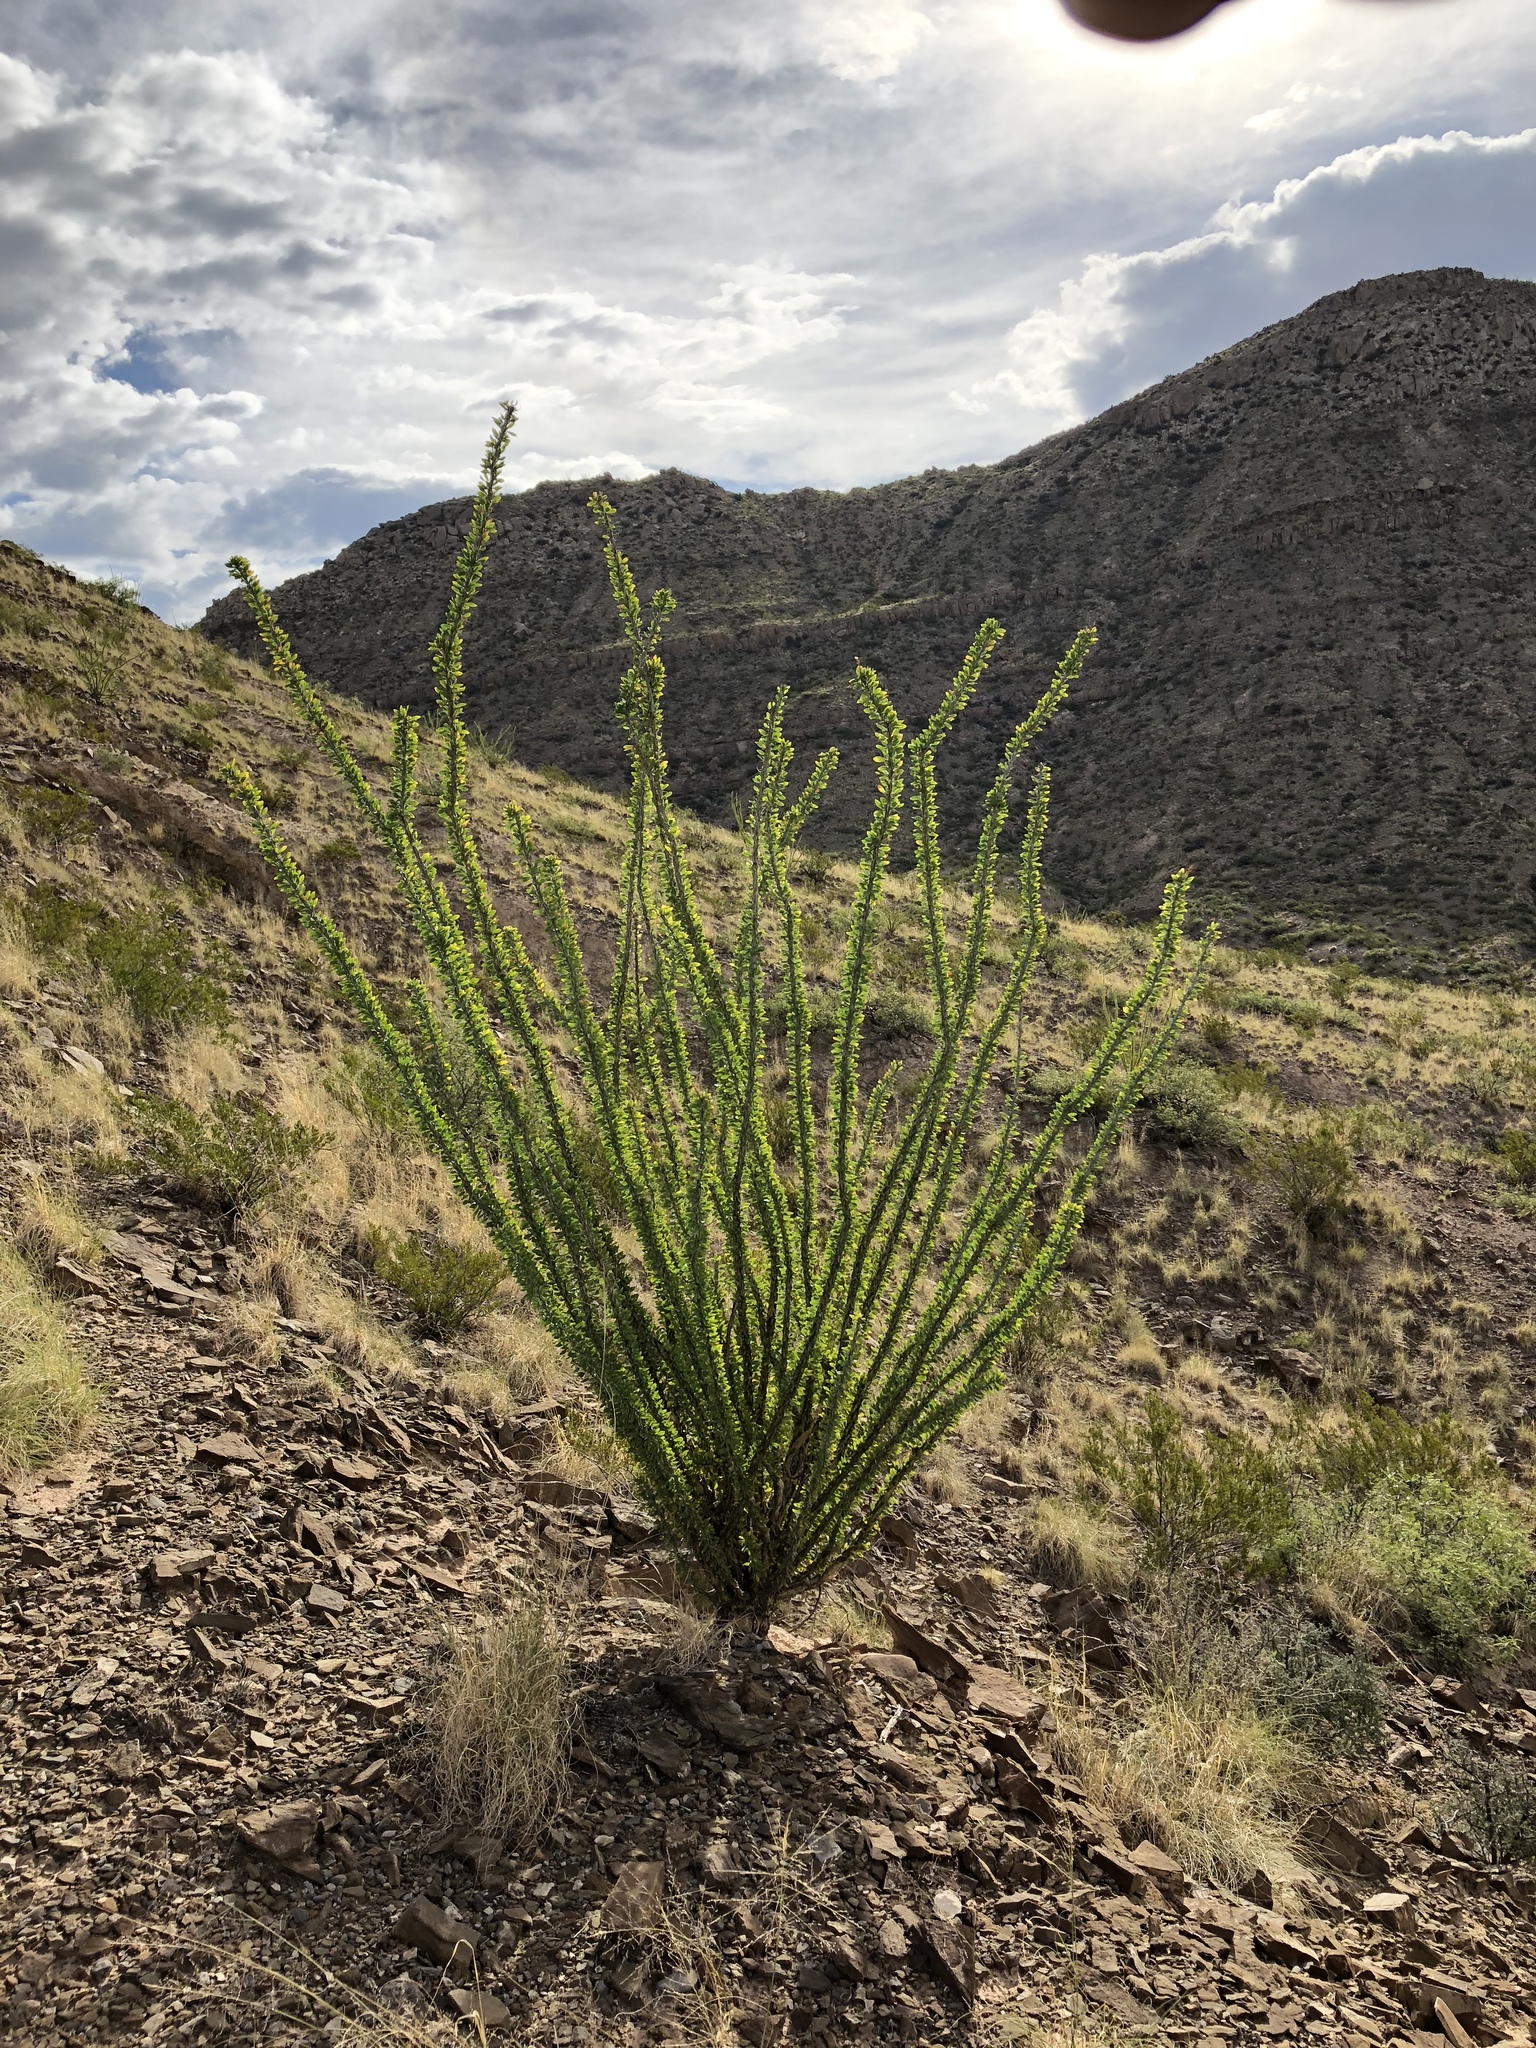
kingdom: Plantae
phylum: Tracheophyta
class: Magnoliopsida
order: Ericales
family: Fouquieriaceae
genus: Fouquieria
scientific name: Fouquieria splendens
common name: Vine-cactus
